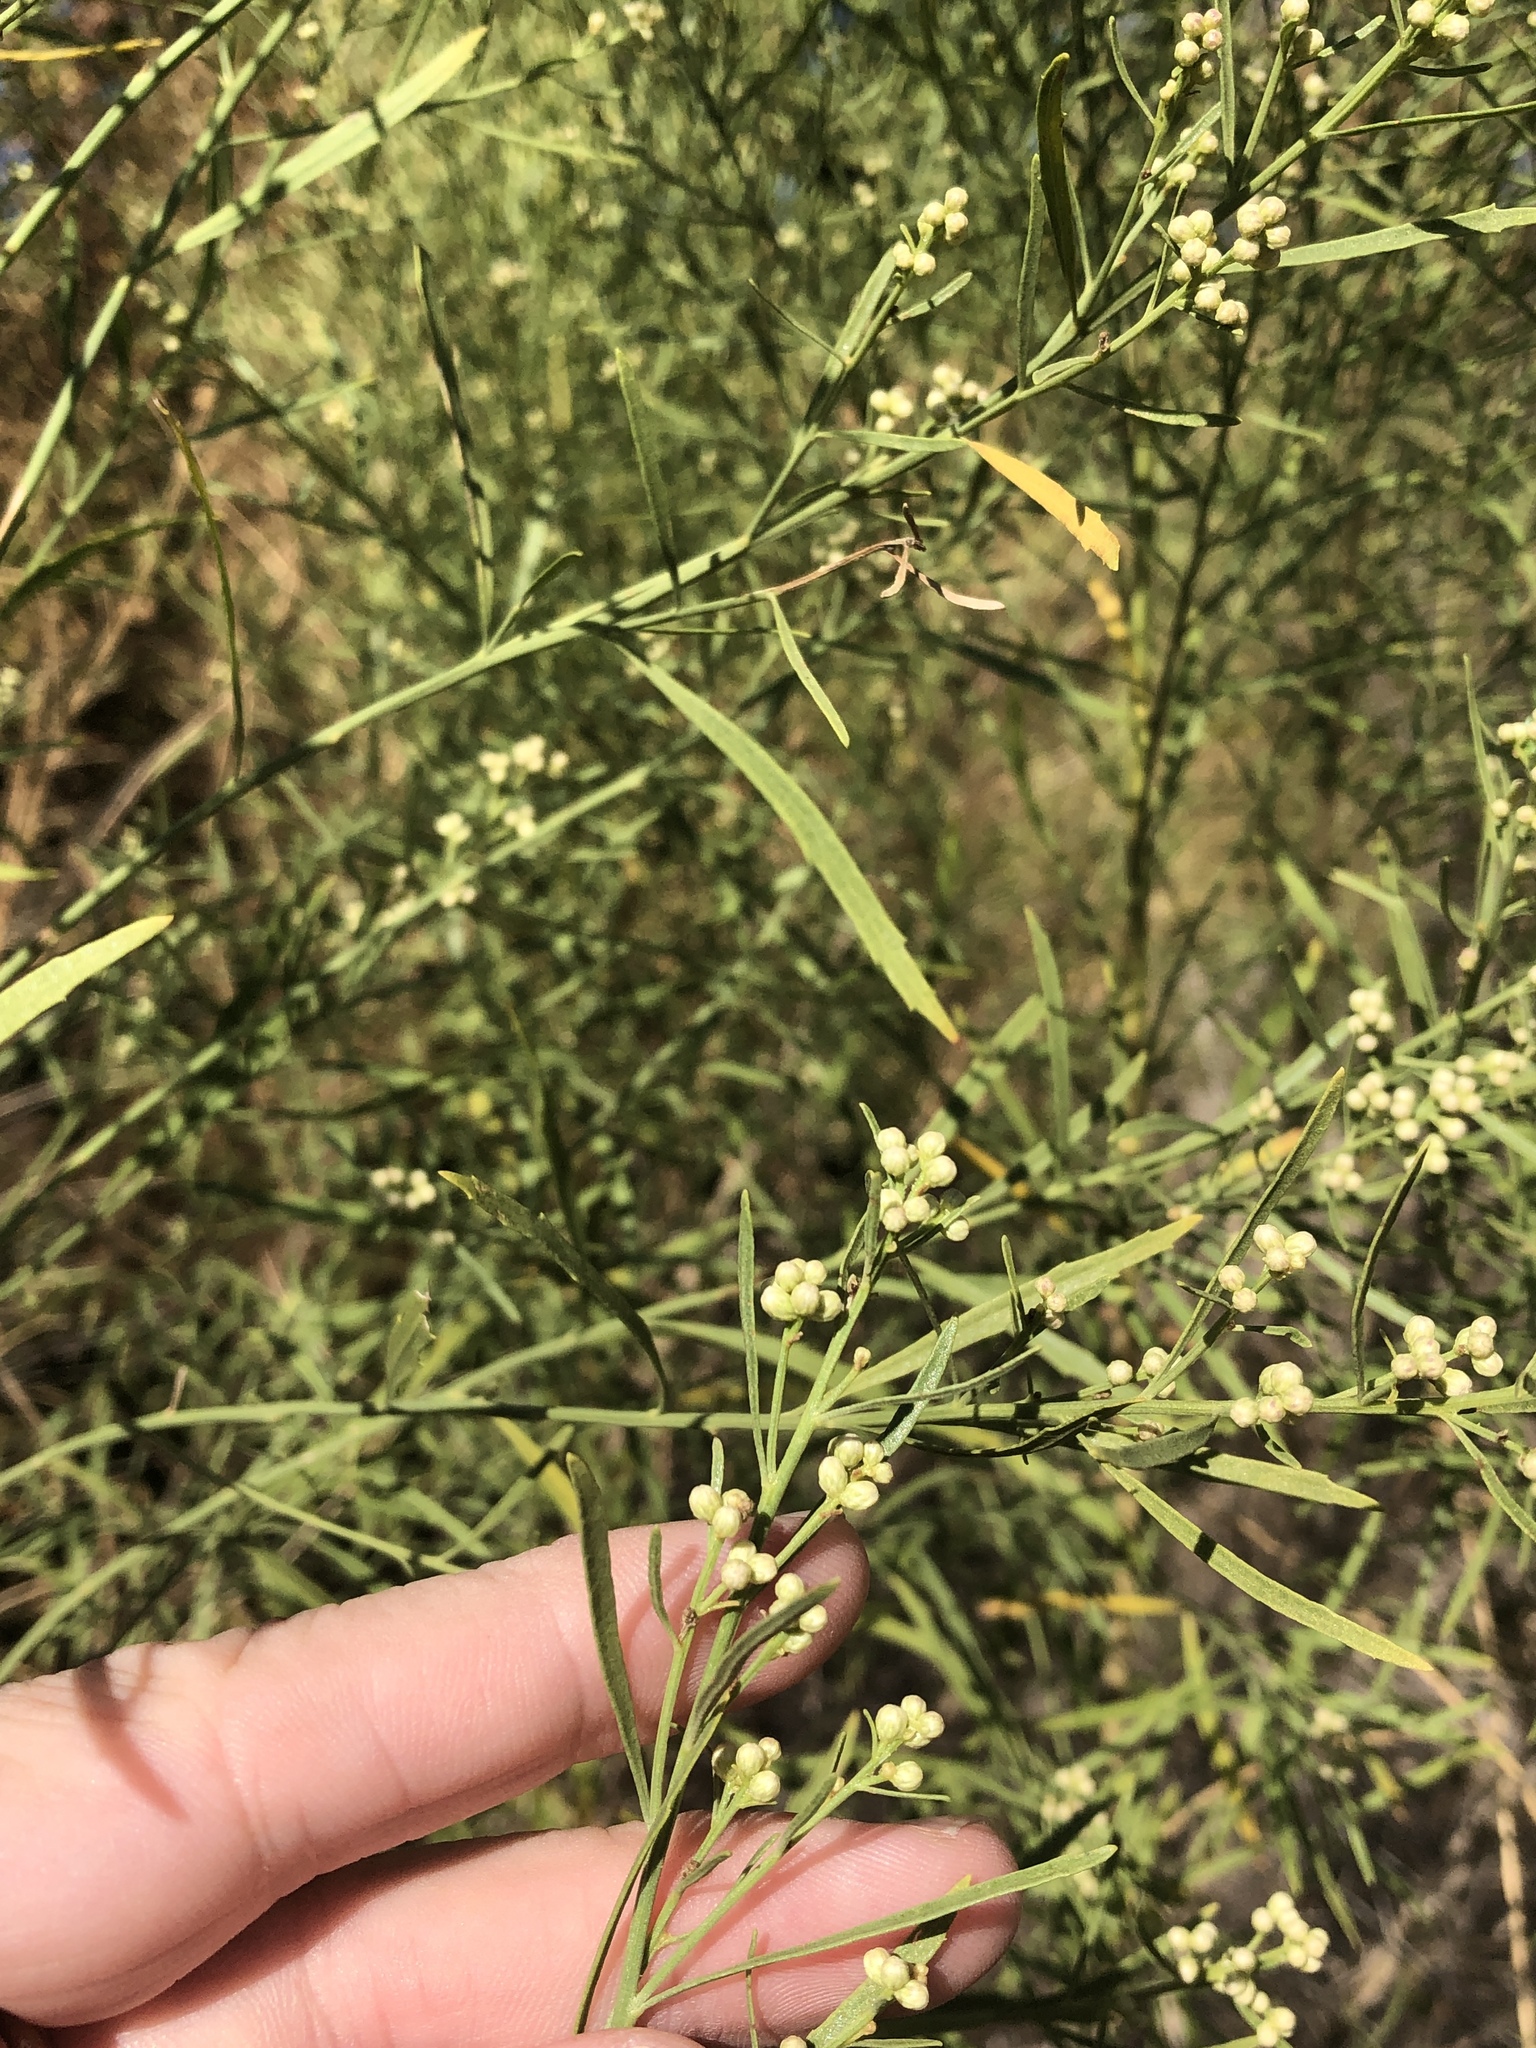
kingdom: Plantae
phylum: Tracheophyta
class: Magnoliopsida
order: Asterales
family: Asteraceae
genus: Baccharis
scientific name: Baccharis neglecta
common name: Roosevelt-weed
